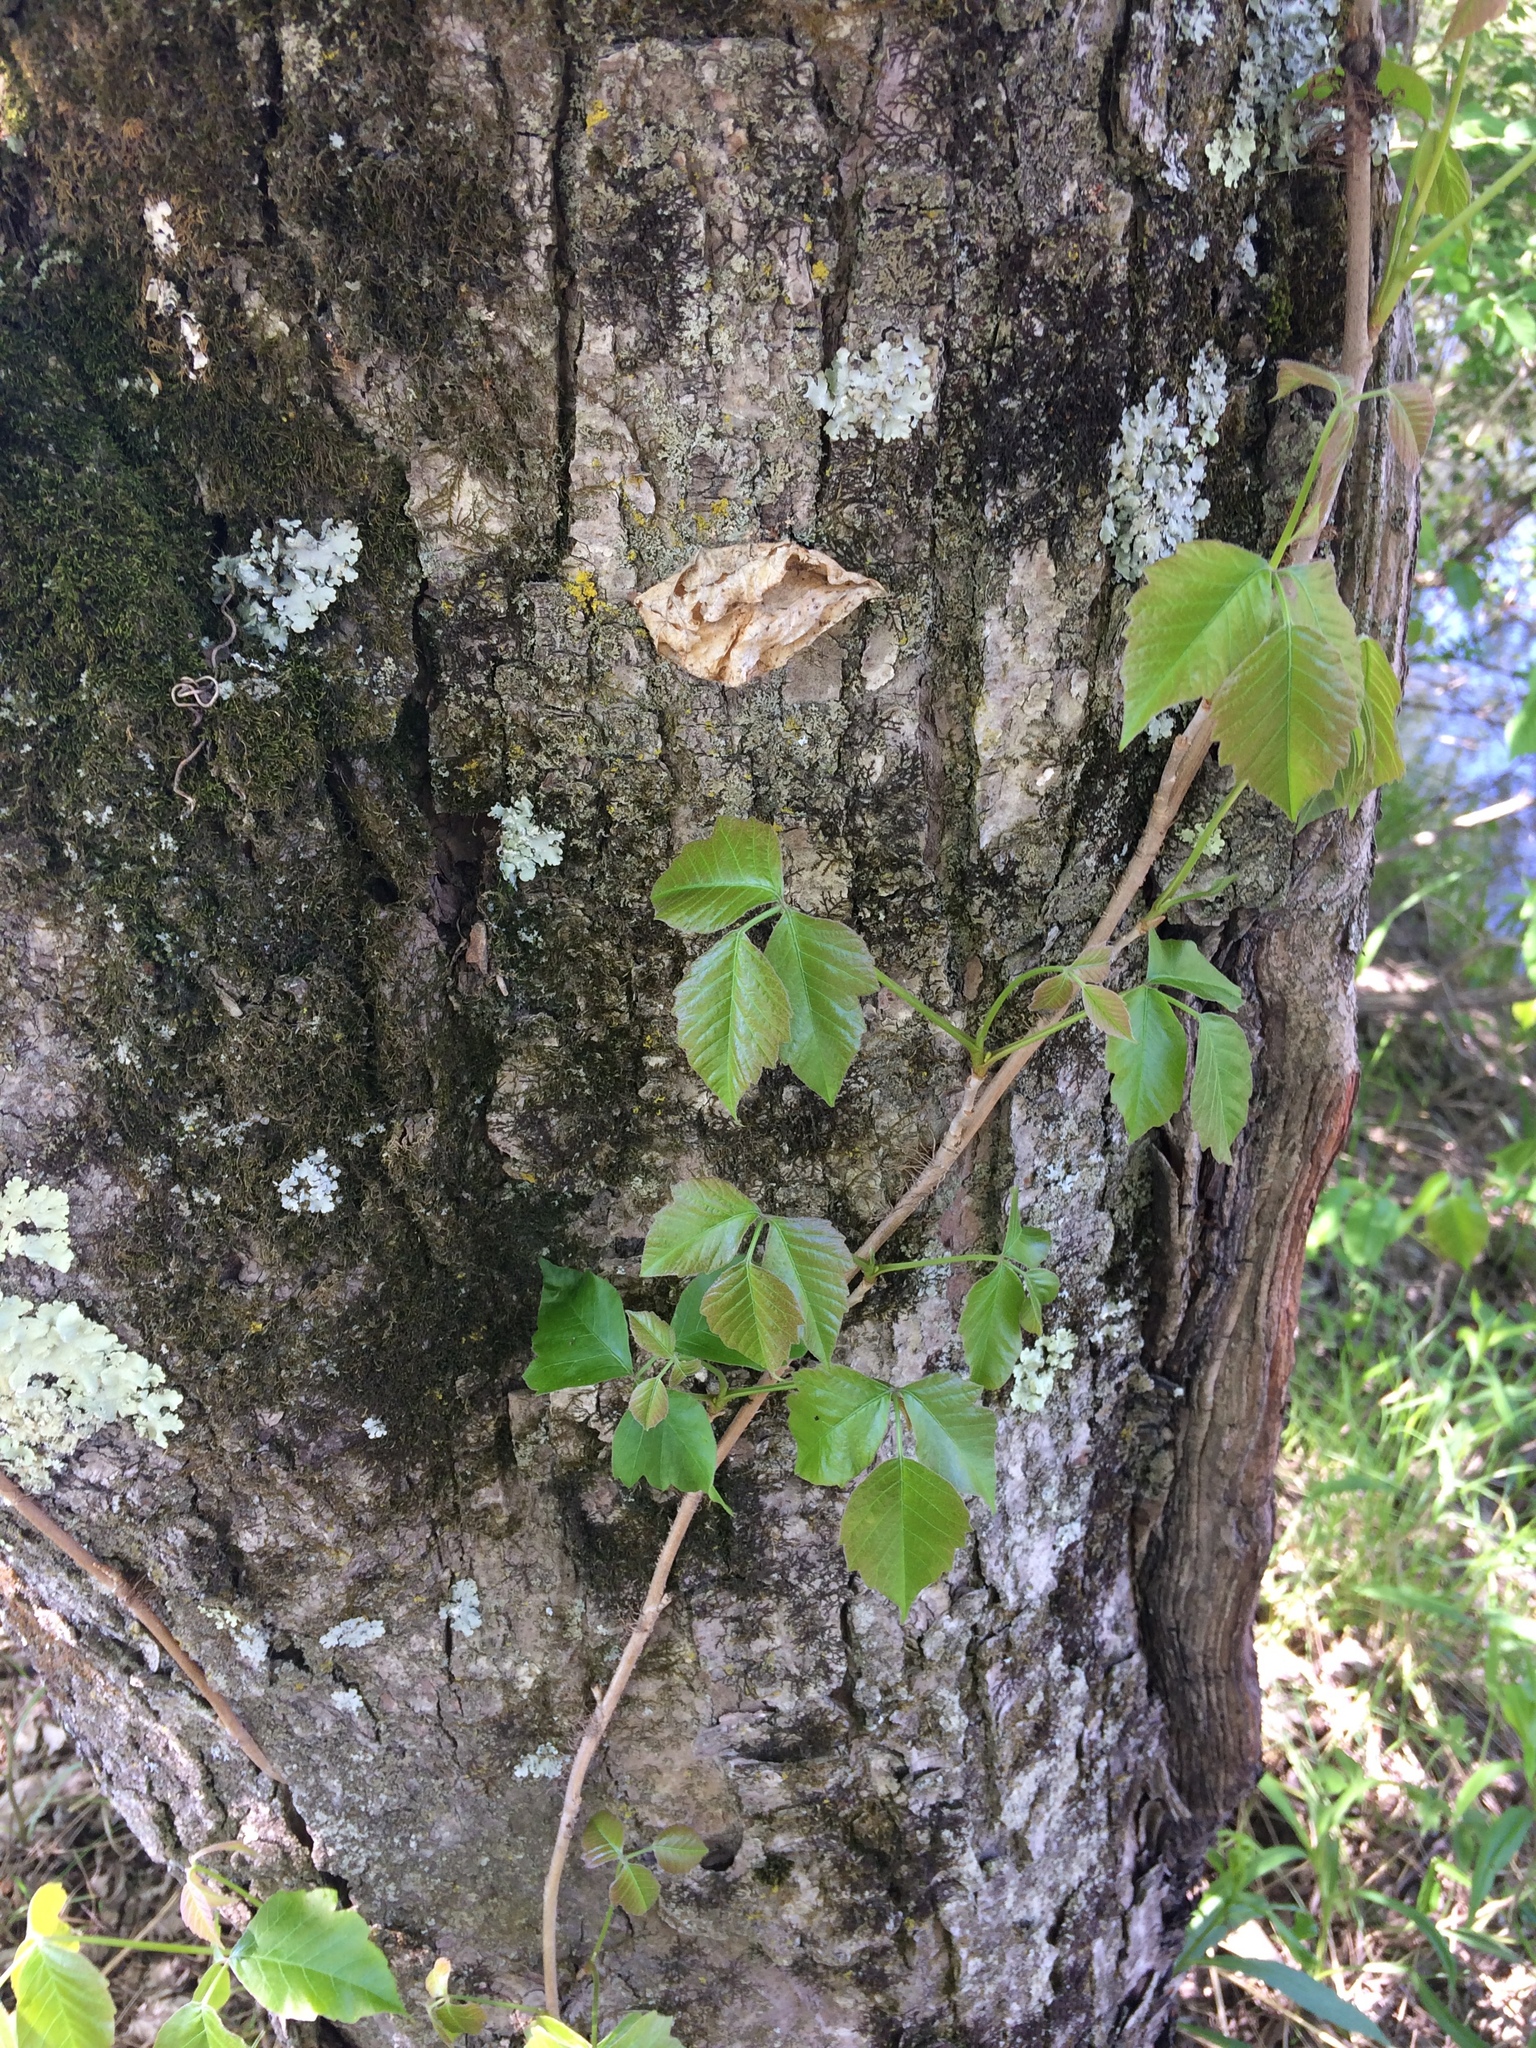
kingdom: Plantae
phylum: Tracheophyta
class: Magnoliopsida
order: Sapindales
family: Anacardiaceae
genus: Toxicodendron
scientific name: Toxicodendron radicans
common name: Poison ivy
